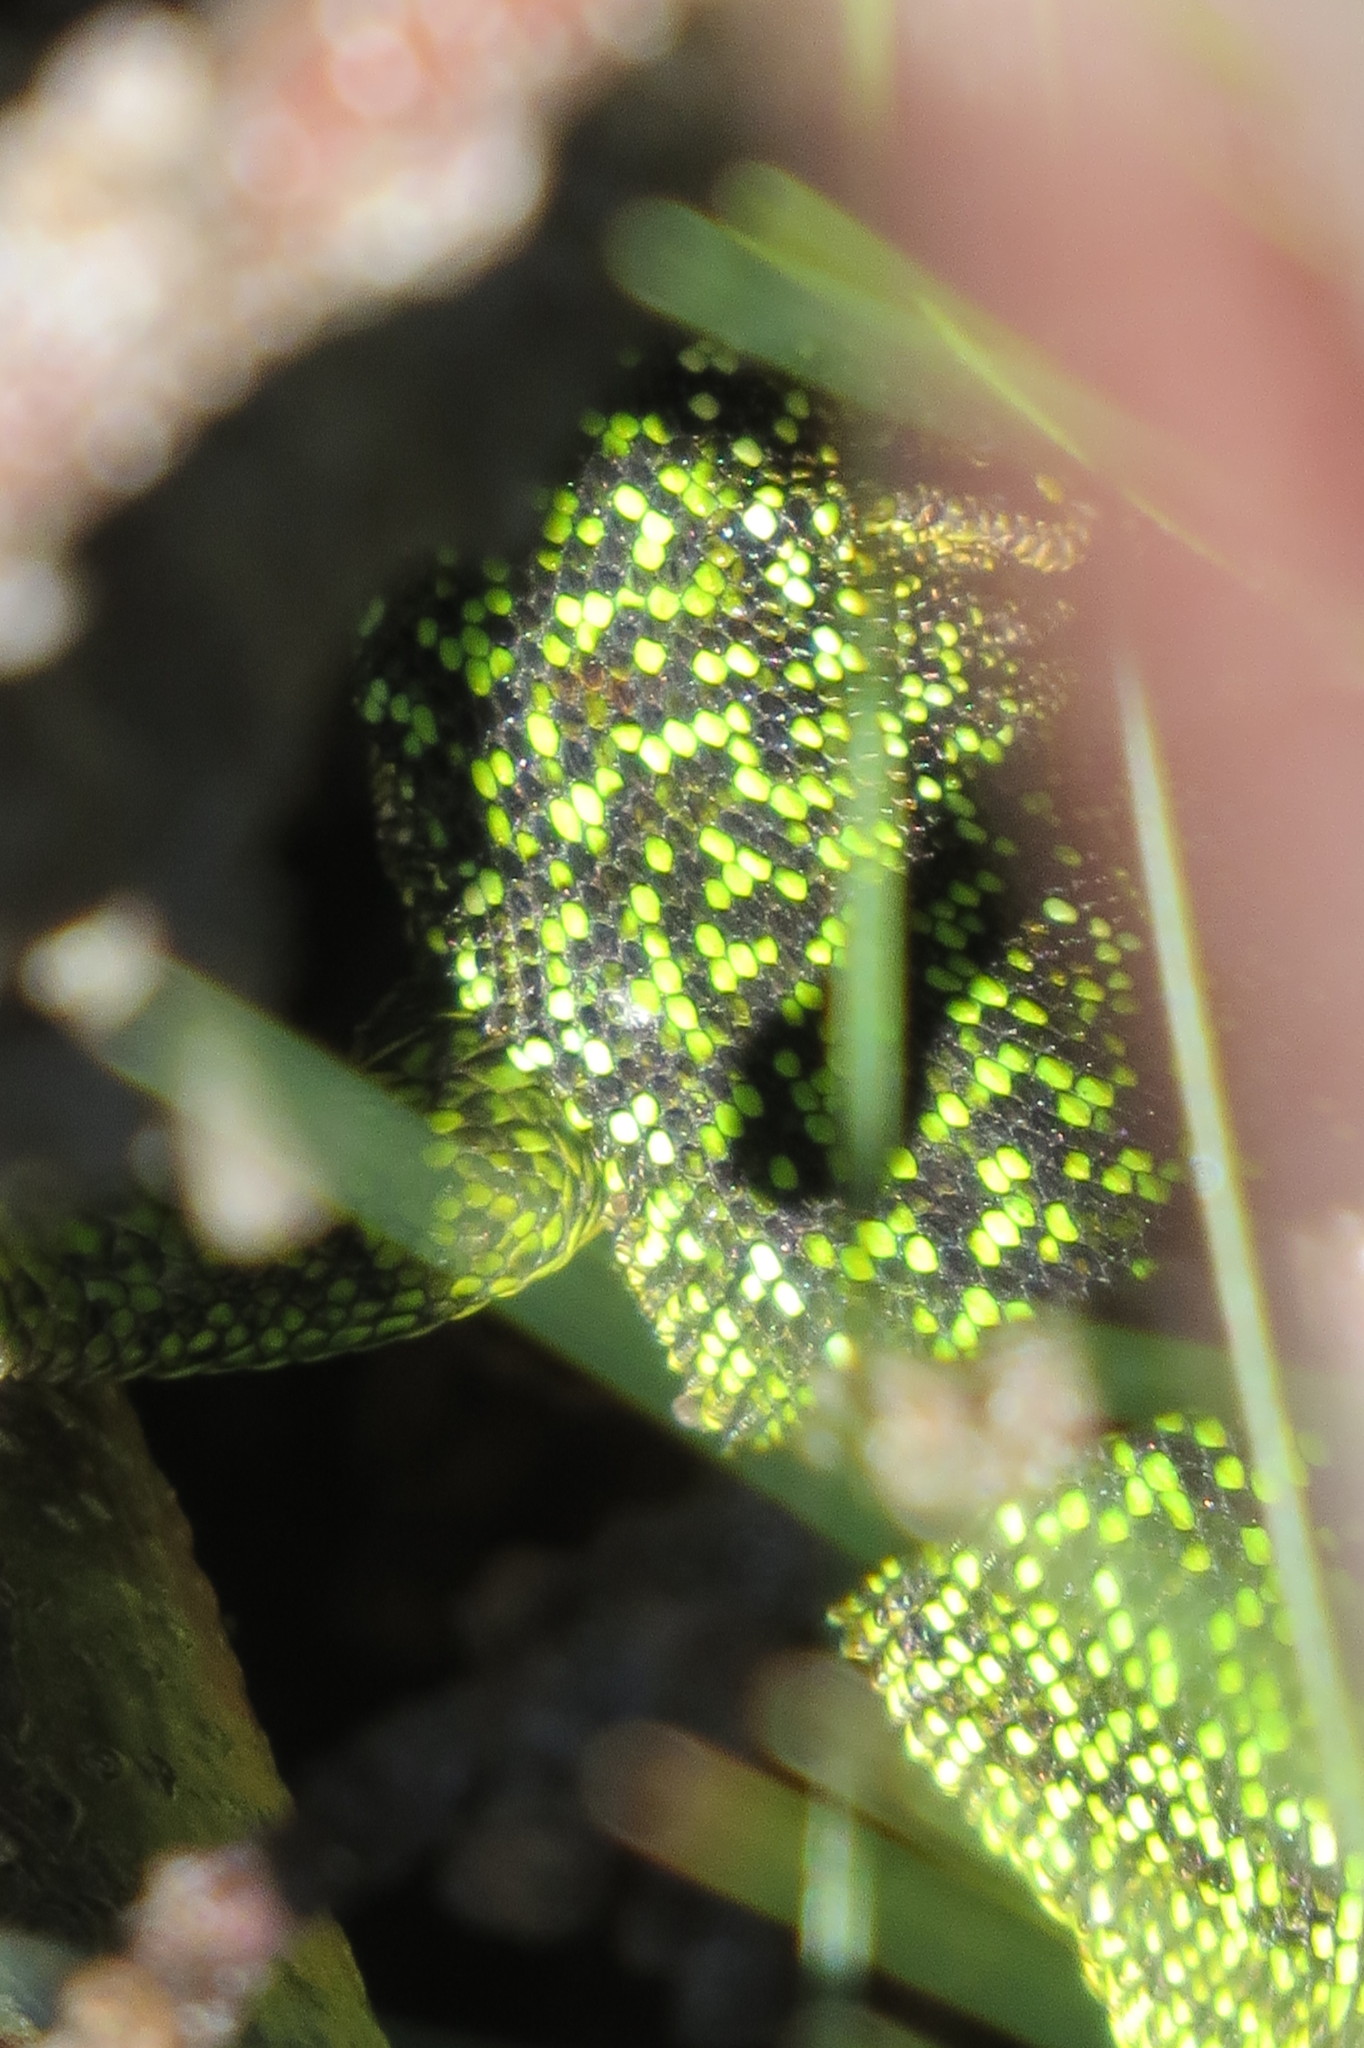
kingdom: Animalia
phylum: Chordata
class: Squamata
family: Lacertidae
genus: Lacerta
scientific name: Lacerta bilineata
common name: Western green lizard
